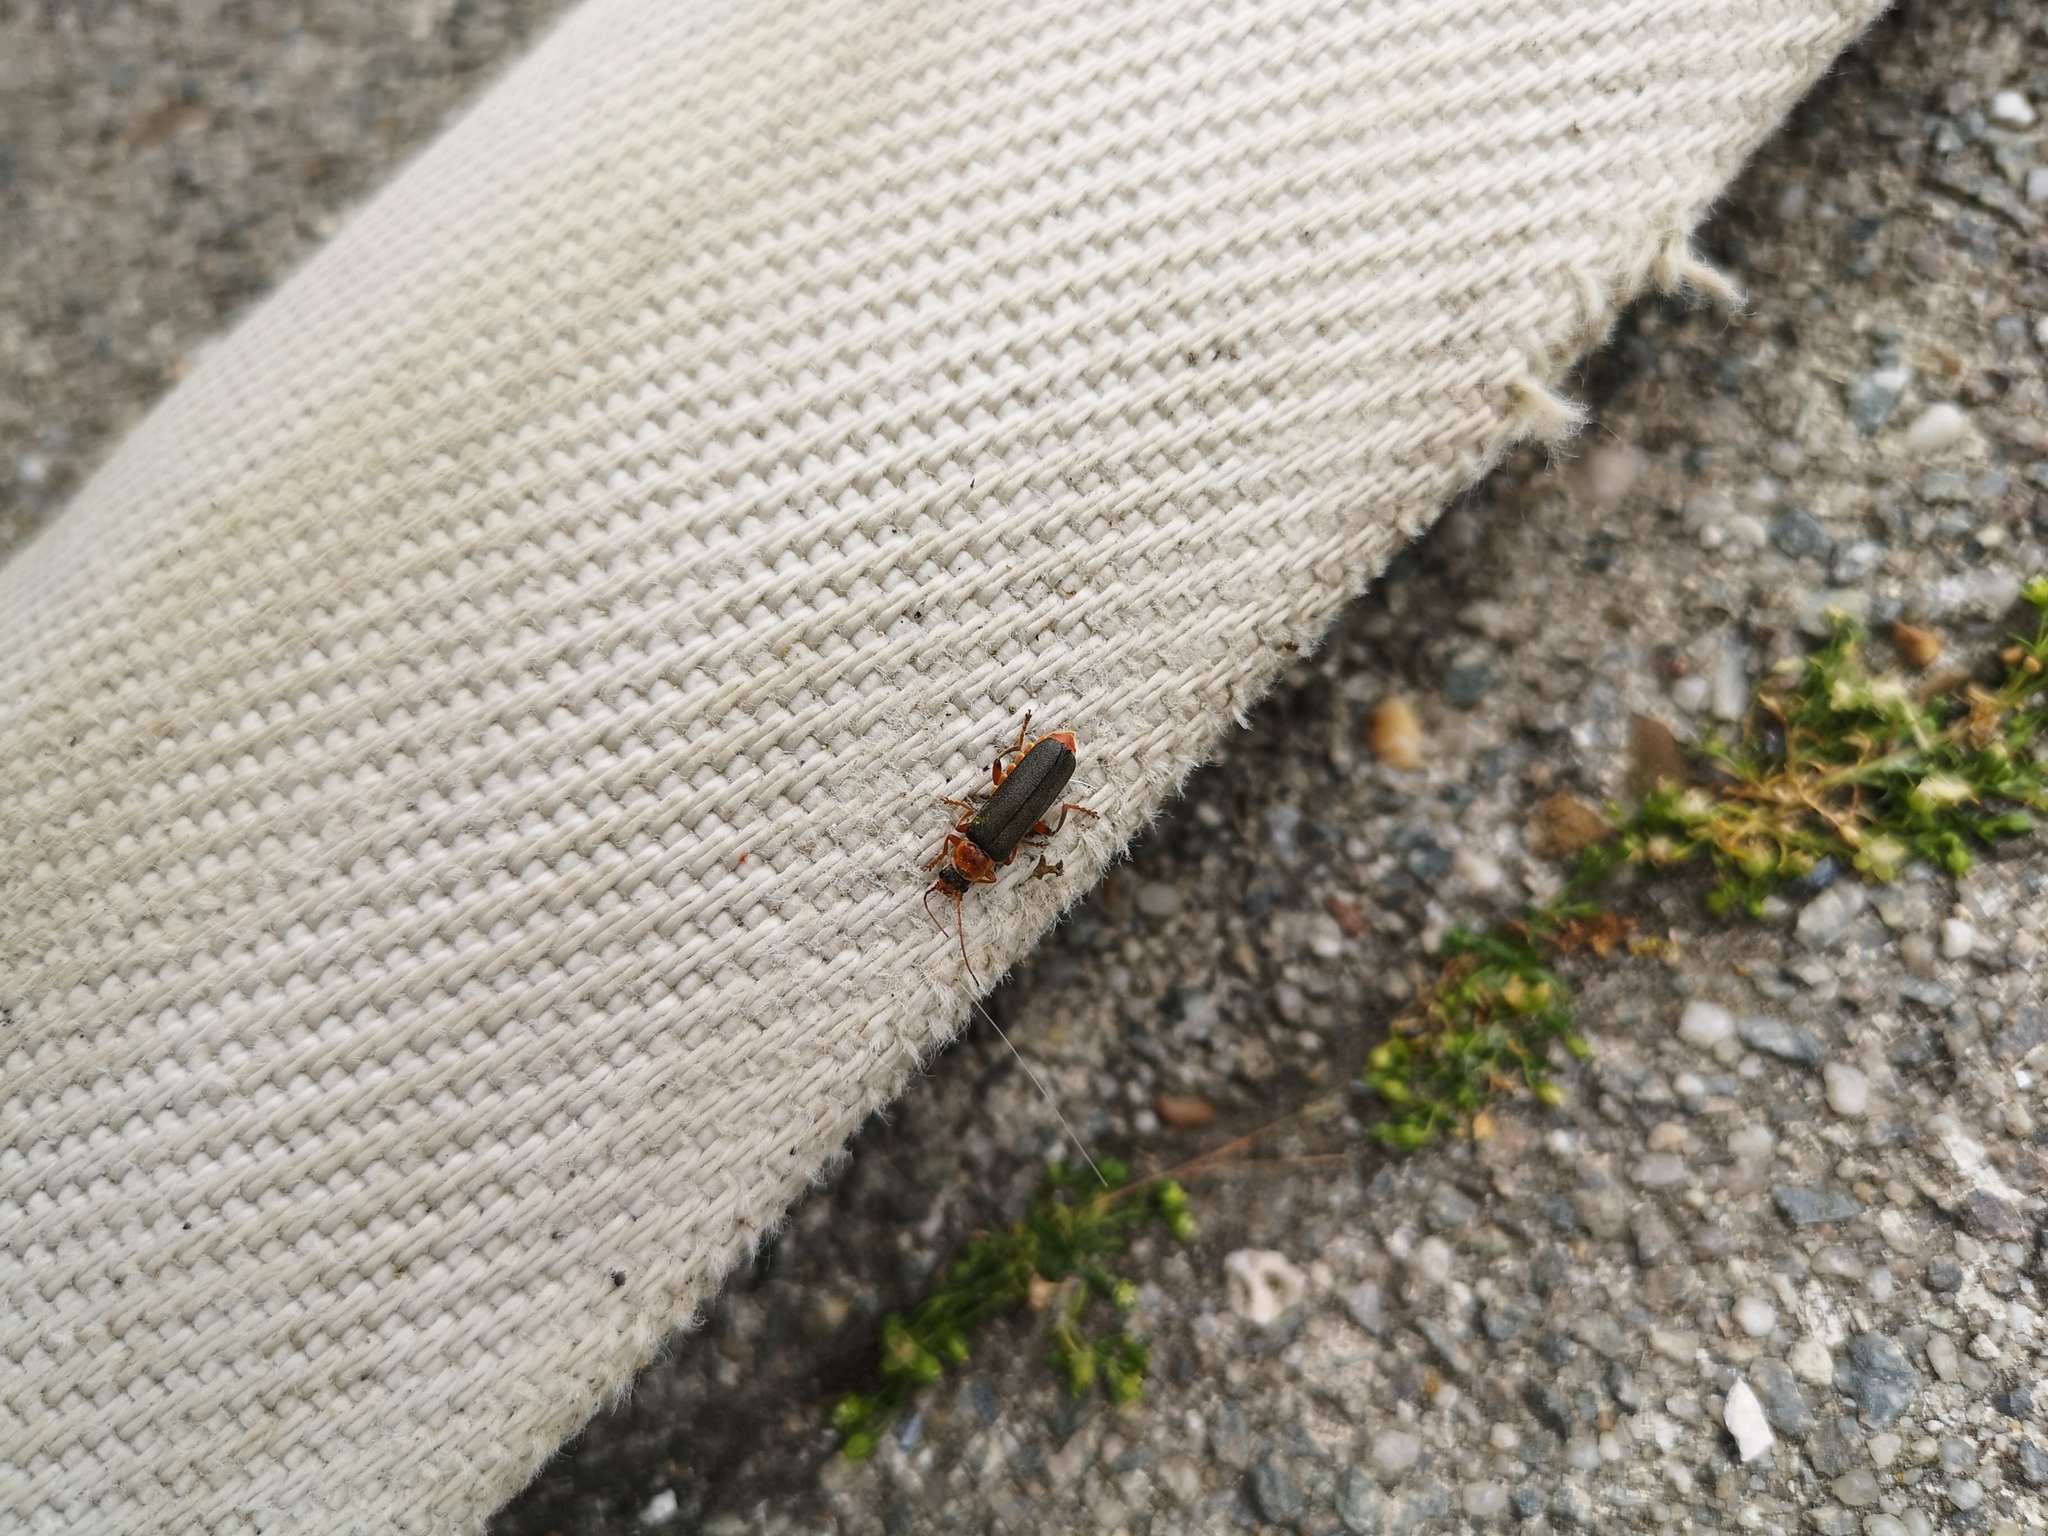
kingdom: Animalia
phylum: Arthropoda
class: Insecta
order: Coleoptera
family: Cantharidae
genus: Cantharis
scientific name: Cantharis nigricans
